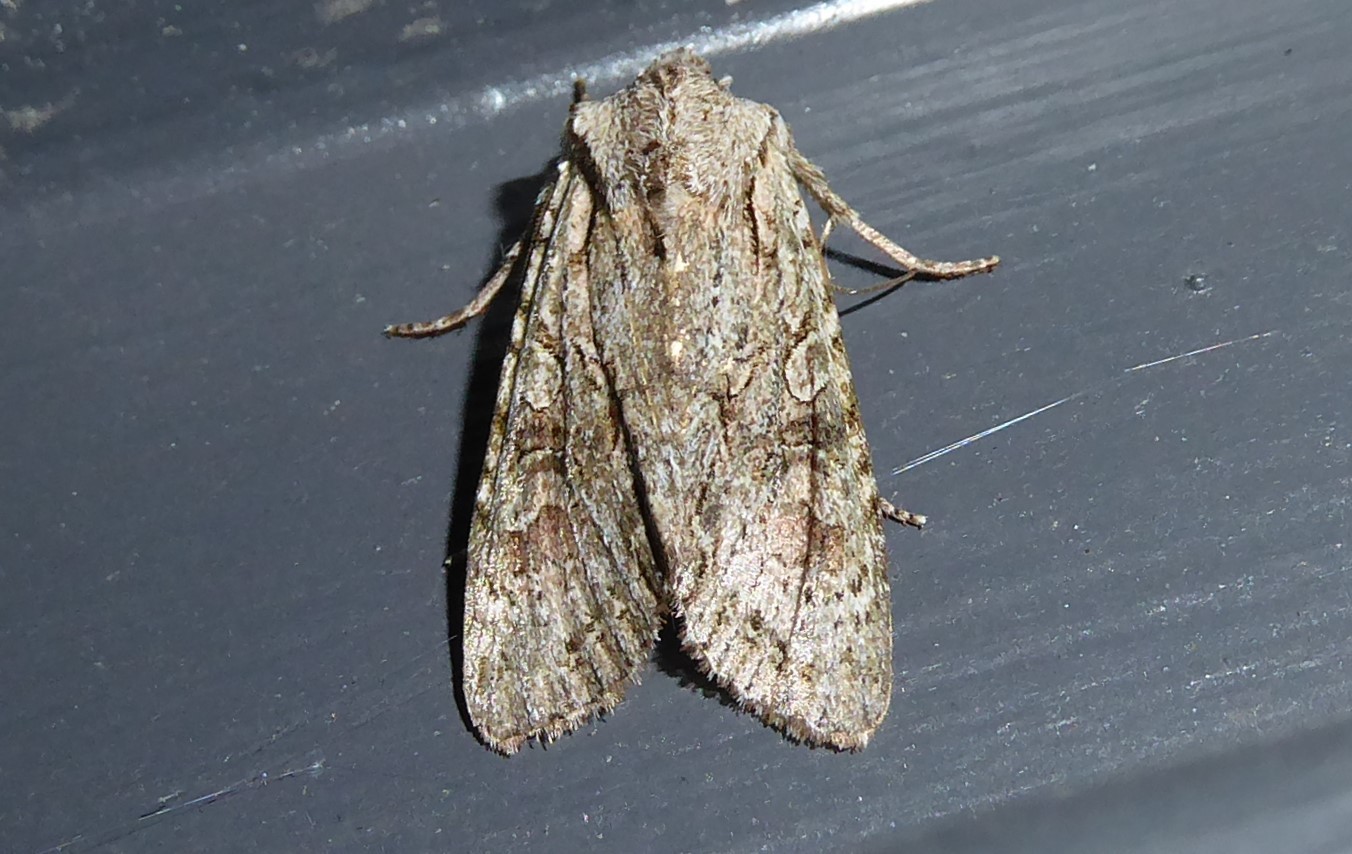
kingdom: Animalia
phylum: Arthropoda
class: Insecta
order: Lepidoptera
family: Noctuidae
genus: Ichneutica
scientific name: Ichneutica mutans
